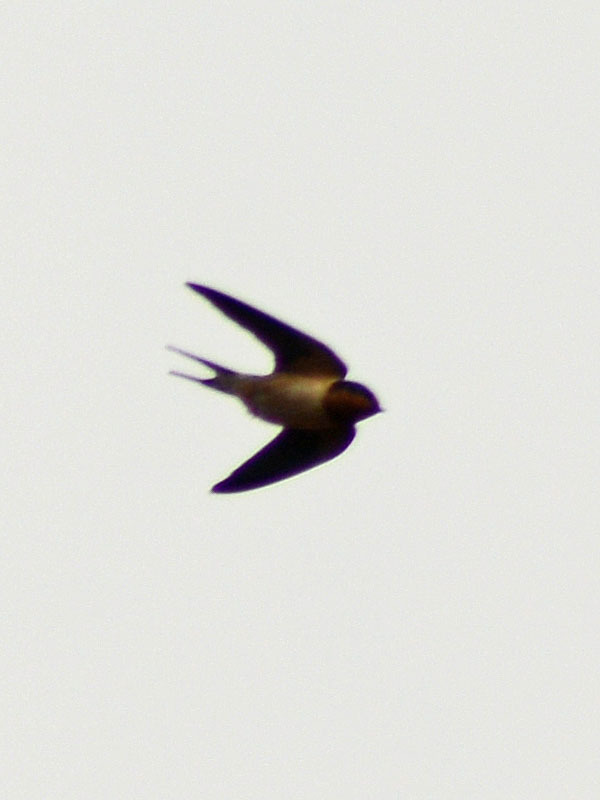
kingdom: Animalia
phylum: Chordata
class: Aves
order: Passeriformes
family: Hirundinidae
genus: Hirundo
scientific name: Hirundo rustica
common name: Barn swallow
